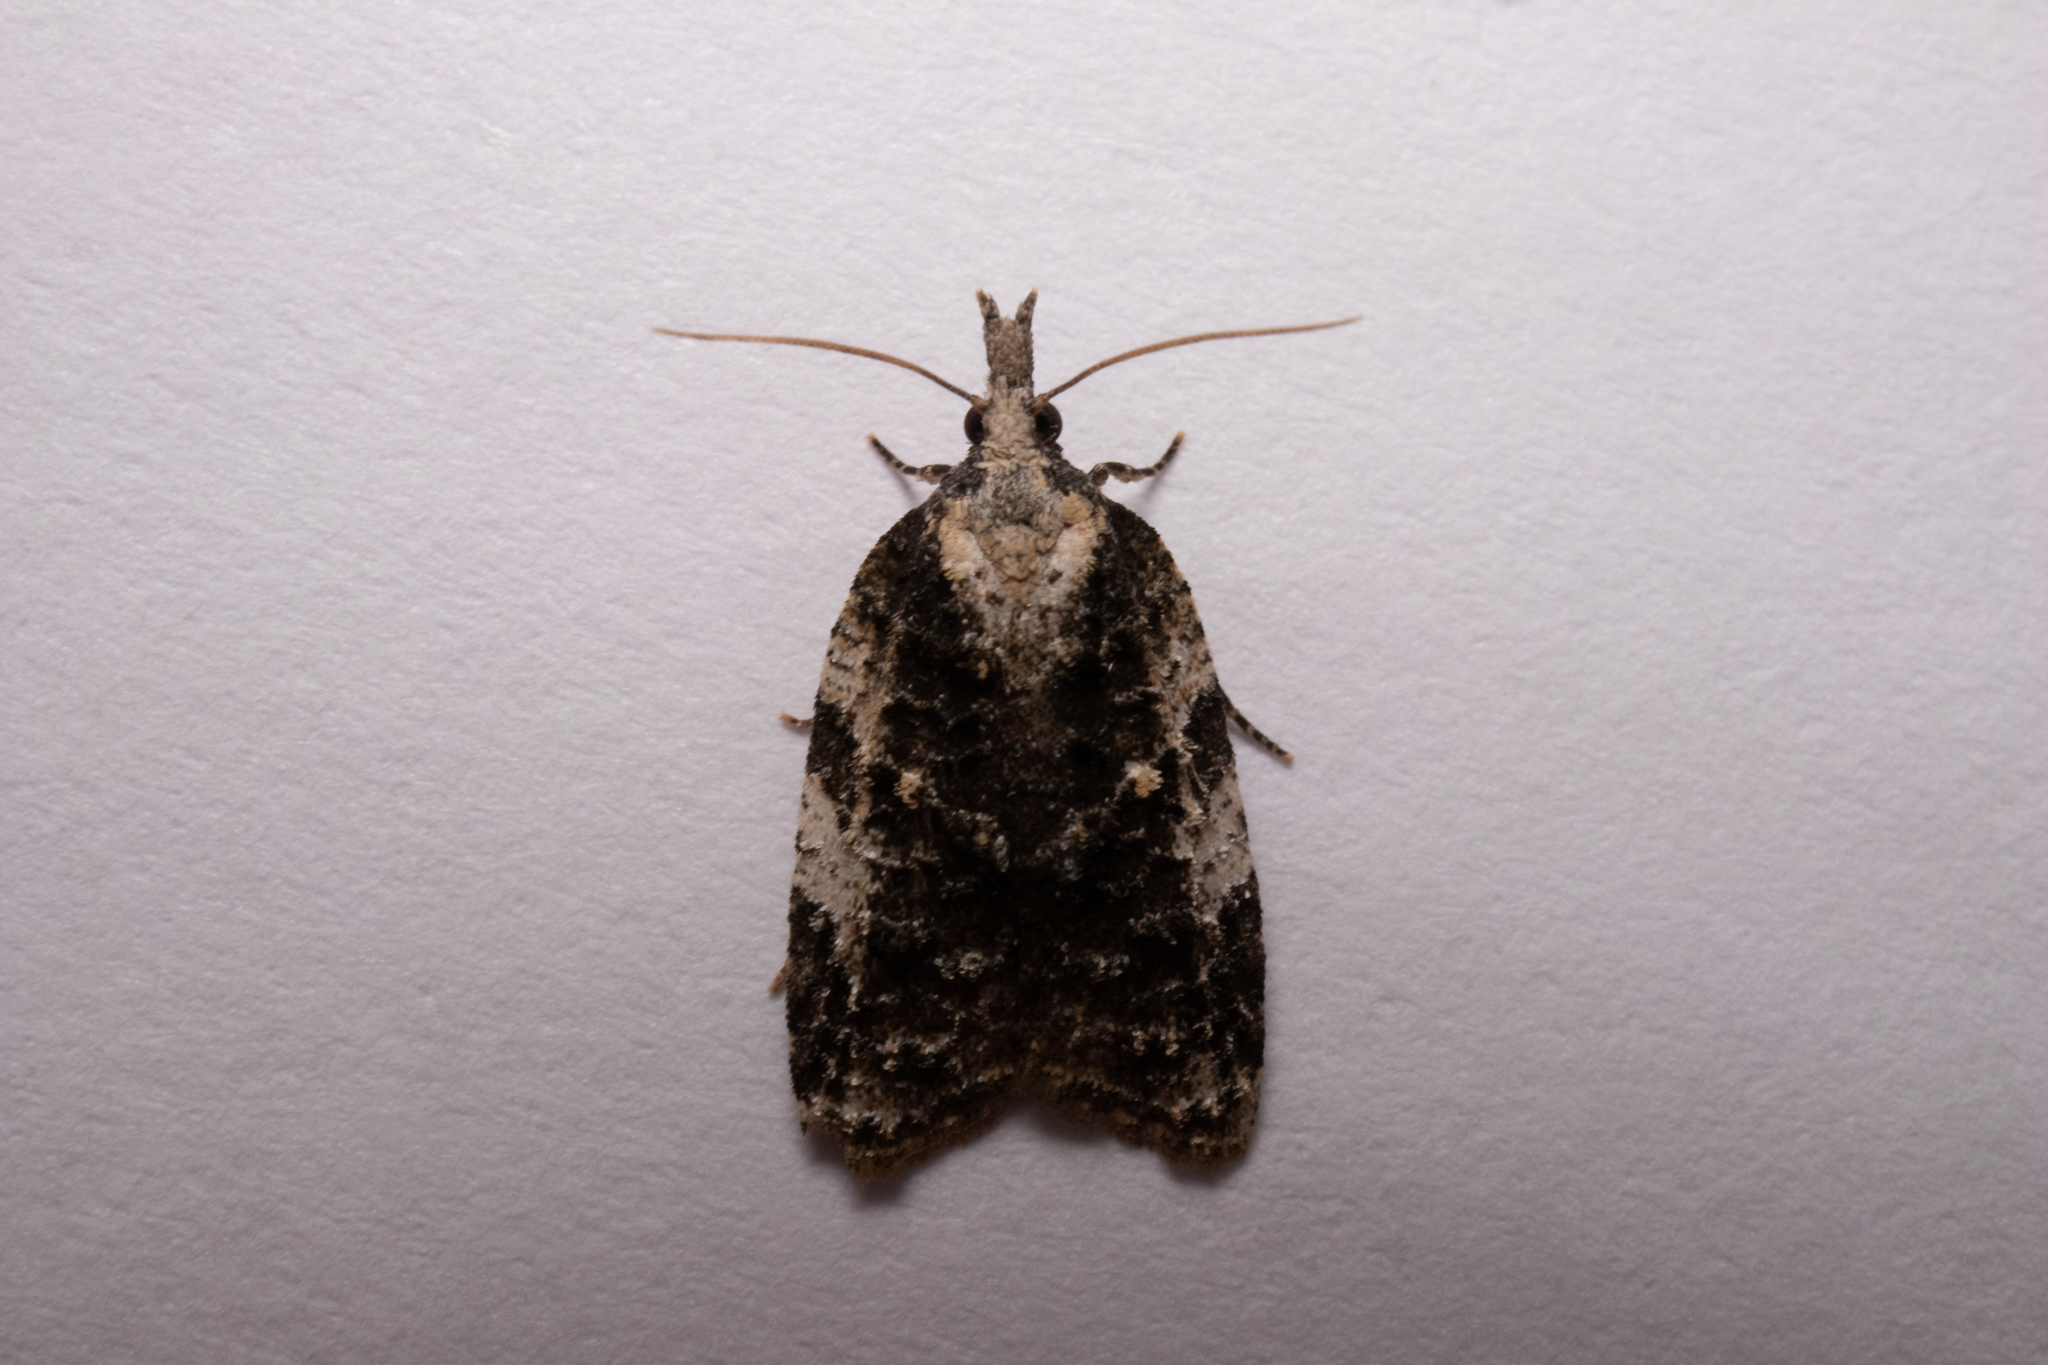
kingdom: Animalia
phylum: Arthropoda
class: Insecta
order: Lepidoptera
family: Tortricidae
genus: Platynota
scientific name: Platynota exasperatana
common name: Exasperating platynota moth
